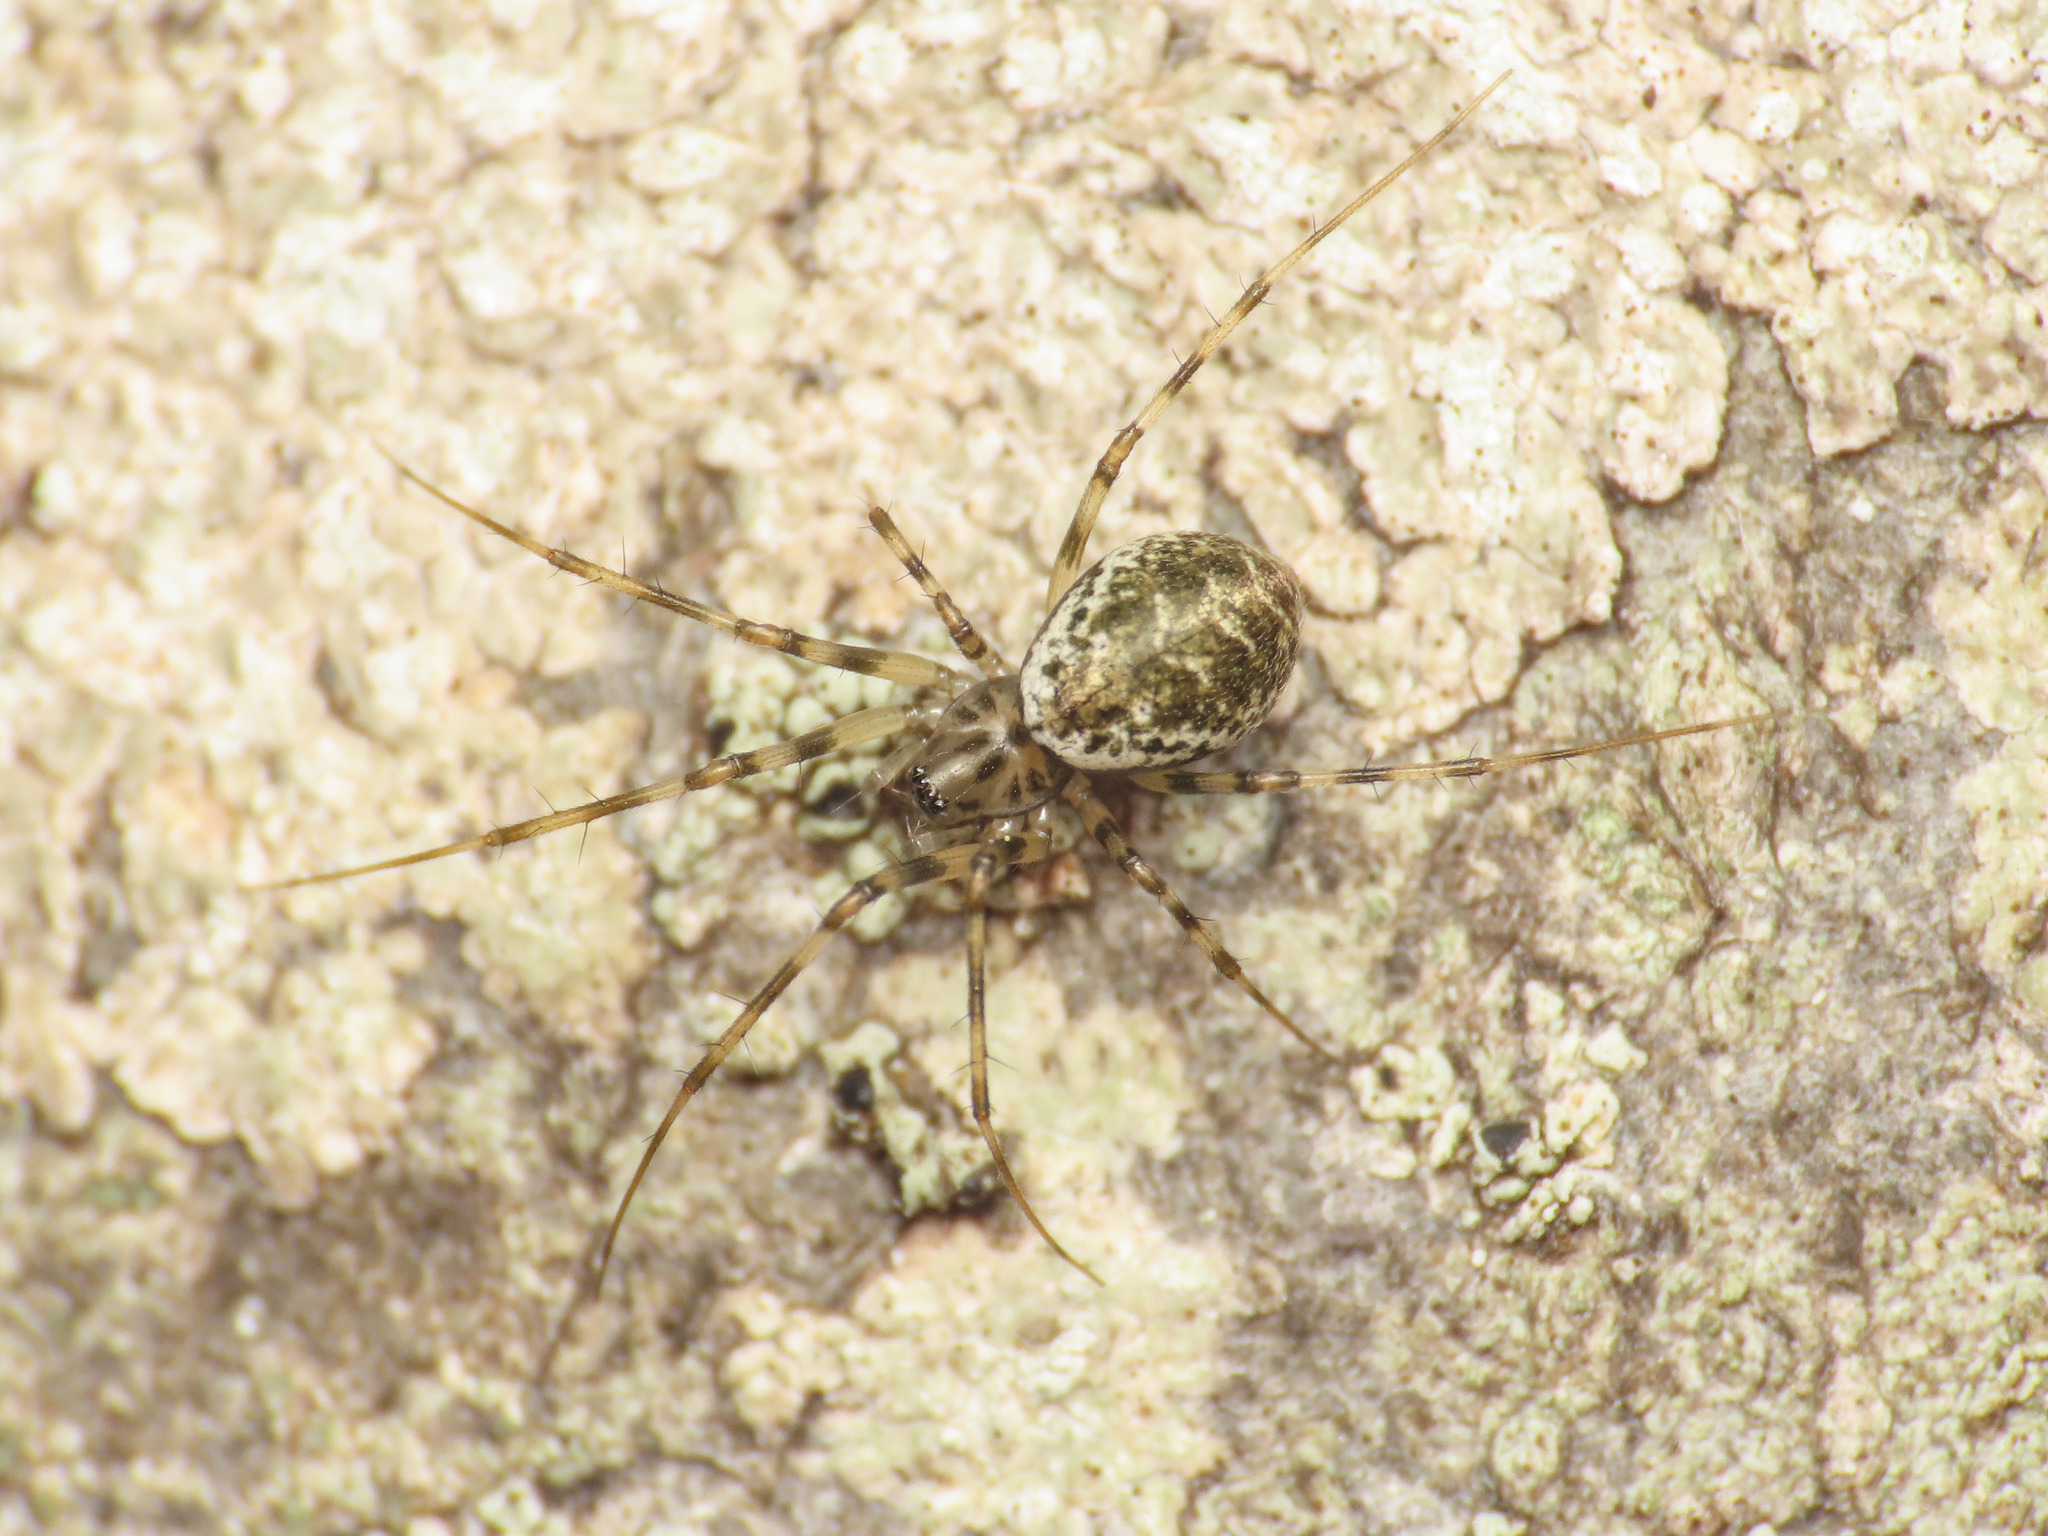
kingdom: Animalia
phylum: Arthropoda
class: Arachnida
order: Araneae
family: Linyphiidae
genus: Drapetisca
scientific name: Drapetisca socialis
